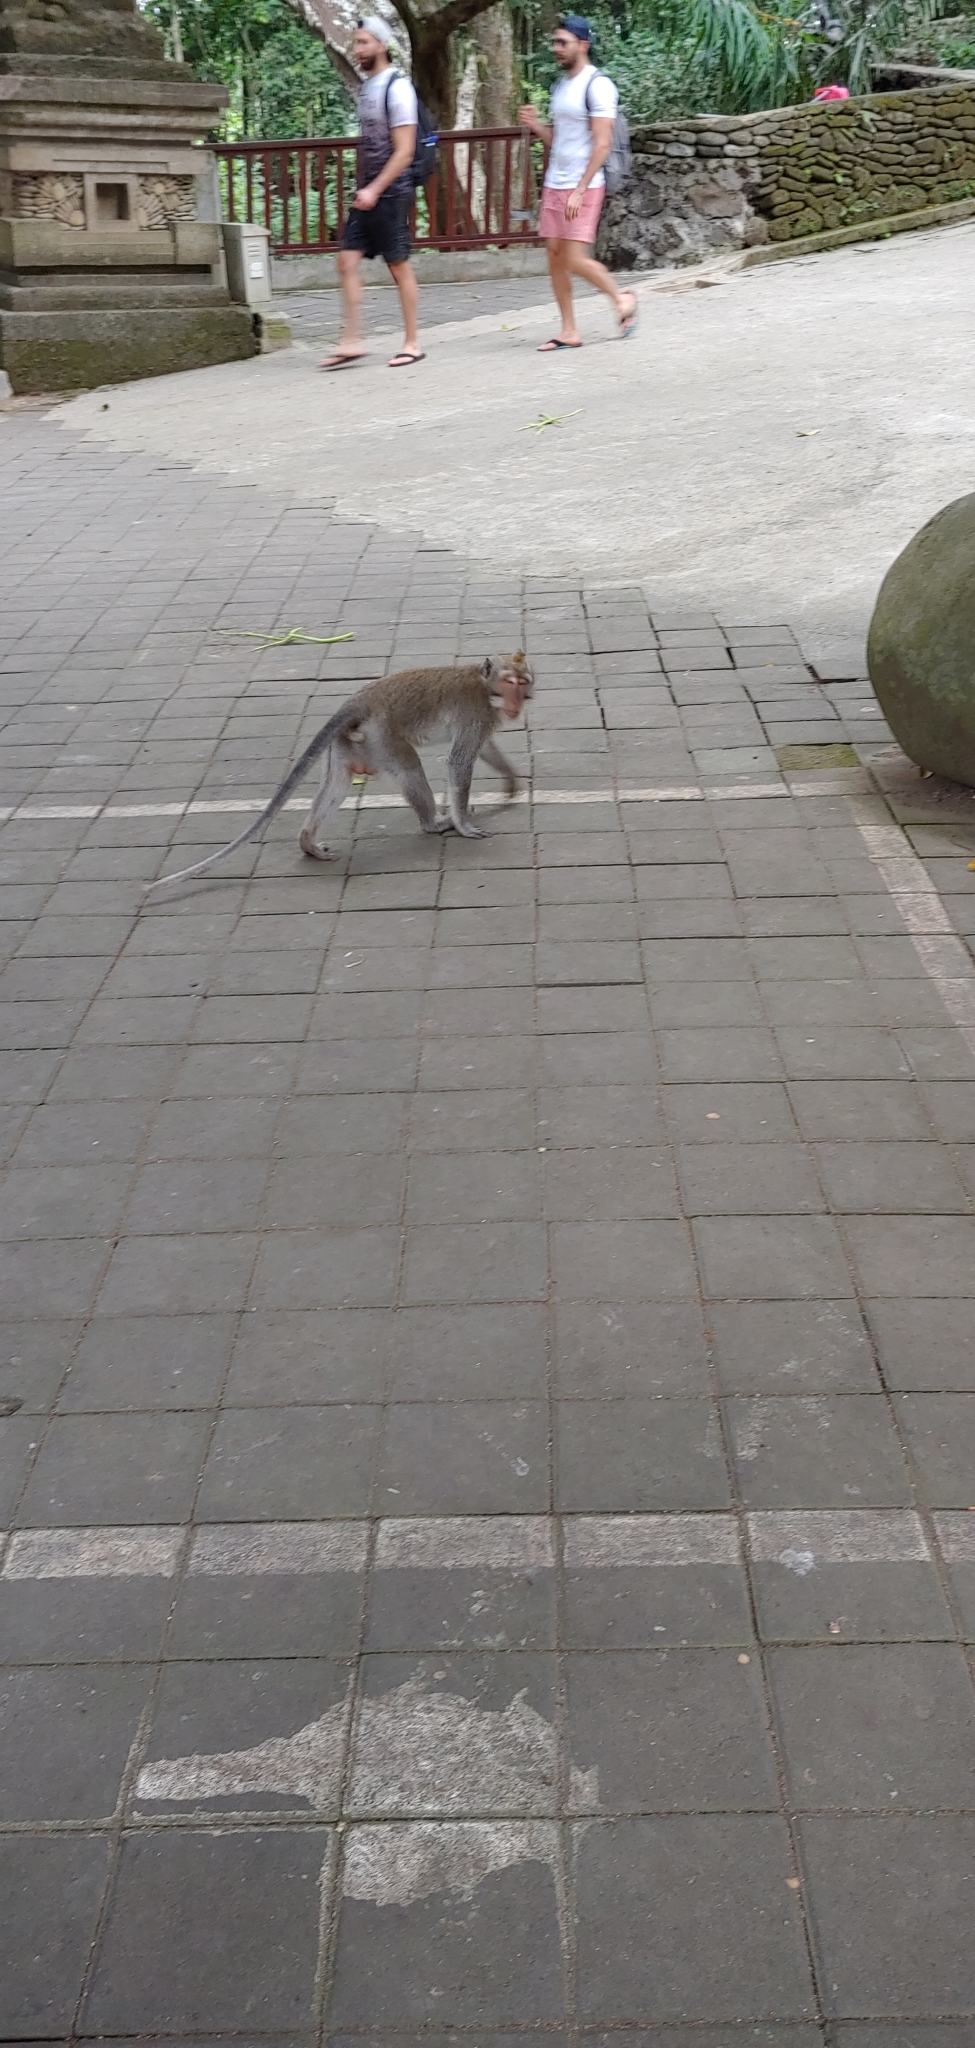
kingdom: Animalia
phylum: Chordata
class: Mammalia
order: Primates
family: Cercopithecidae
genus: Macaca
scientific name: Macaca fascicularis
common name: Crab-eating macaque
